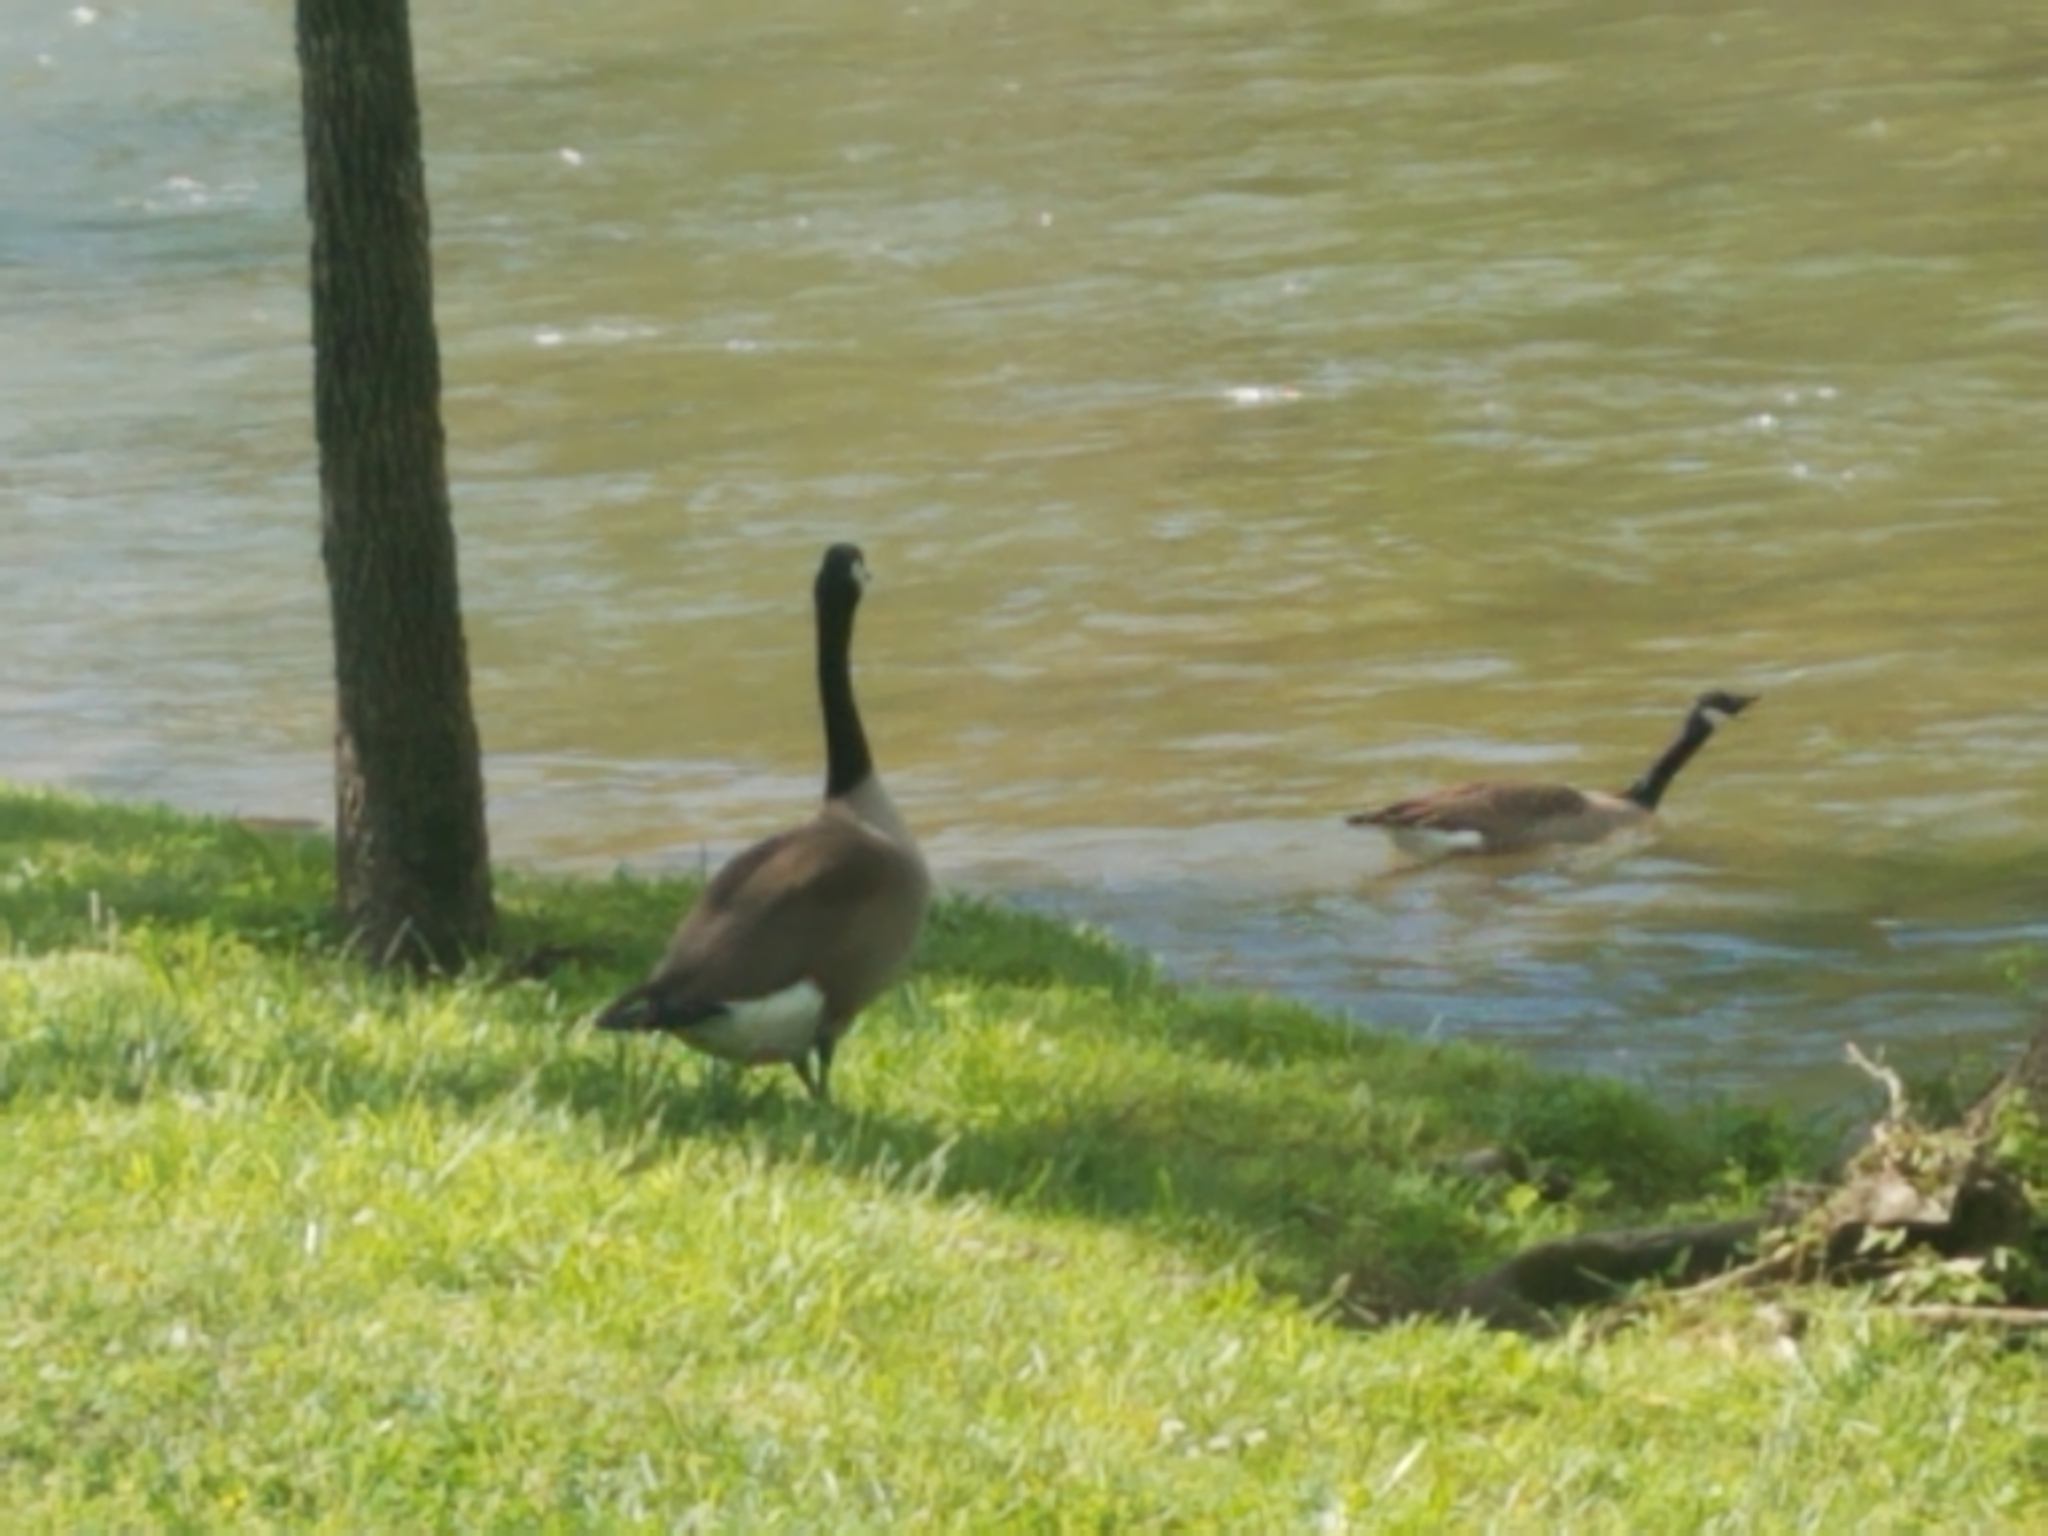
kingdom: Animalia
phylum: Chordata
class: Aves
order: Anseriformes
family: Anatidae
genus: Branta
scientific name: Branta canadensis
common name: Canada goose
